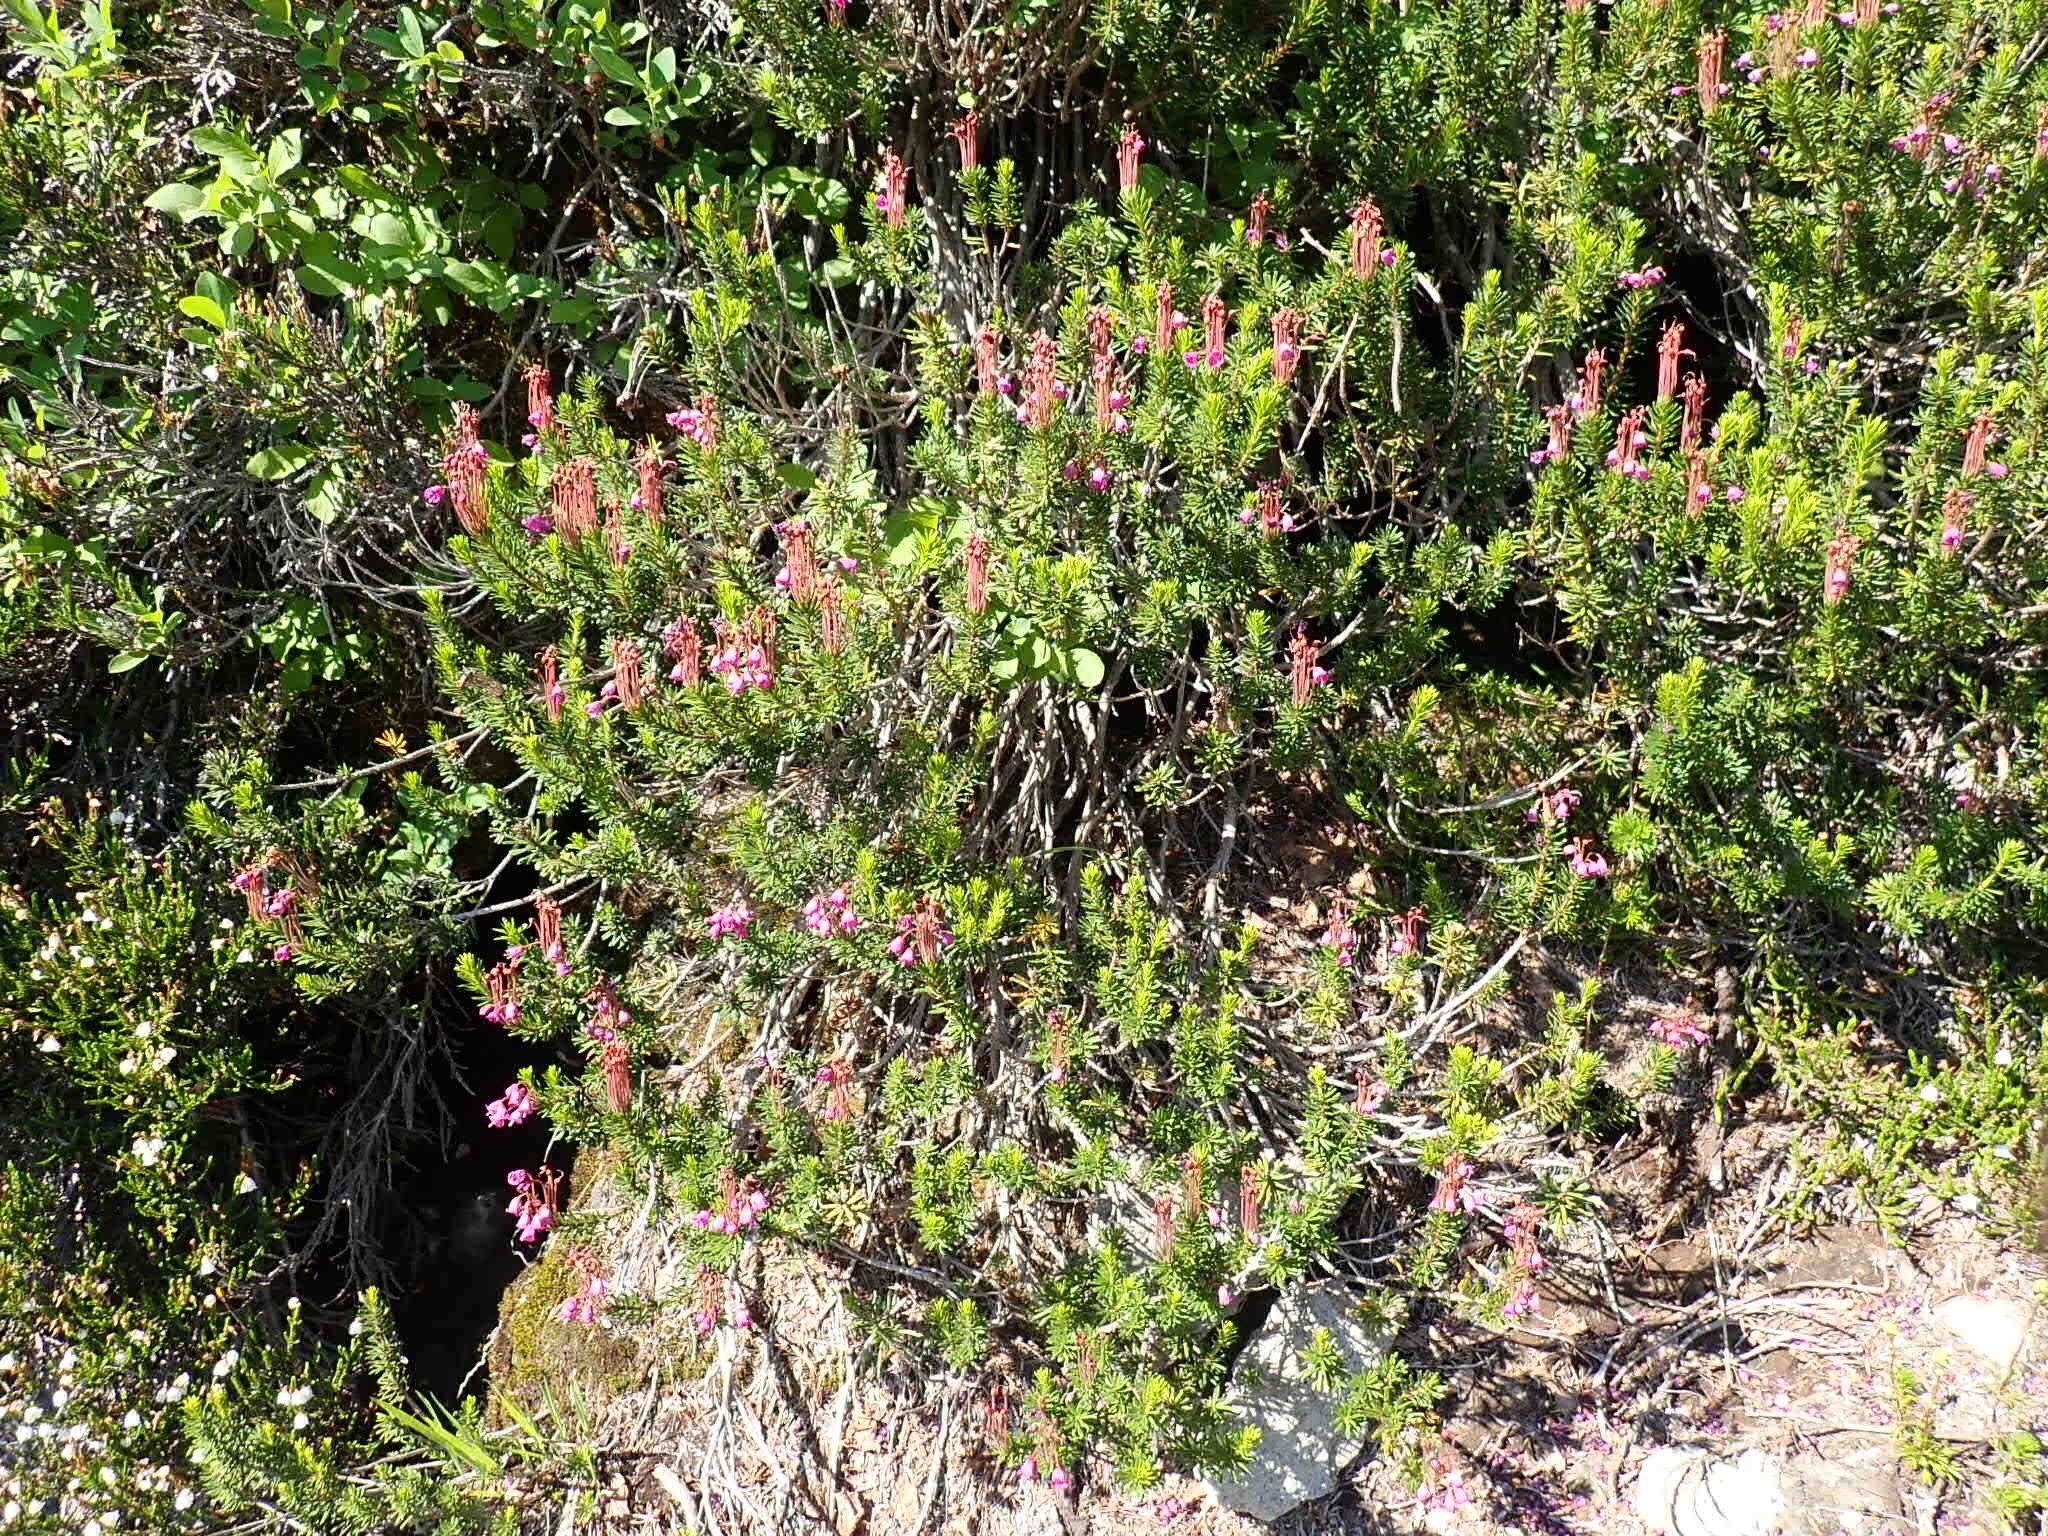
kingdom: Plantae
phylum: Tracheophyta
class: Magnoliopsida
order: Ericales
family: Ericaceae
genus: Phyllodoce
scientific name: Phyllodoce empetriformis
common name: Pink mountain heather
